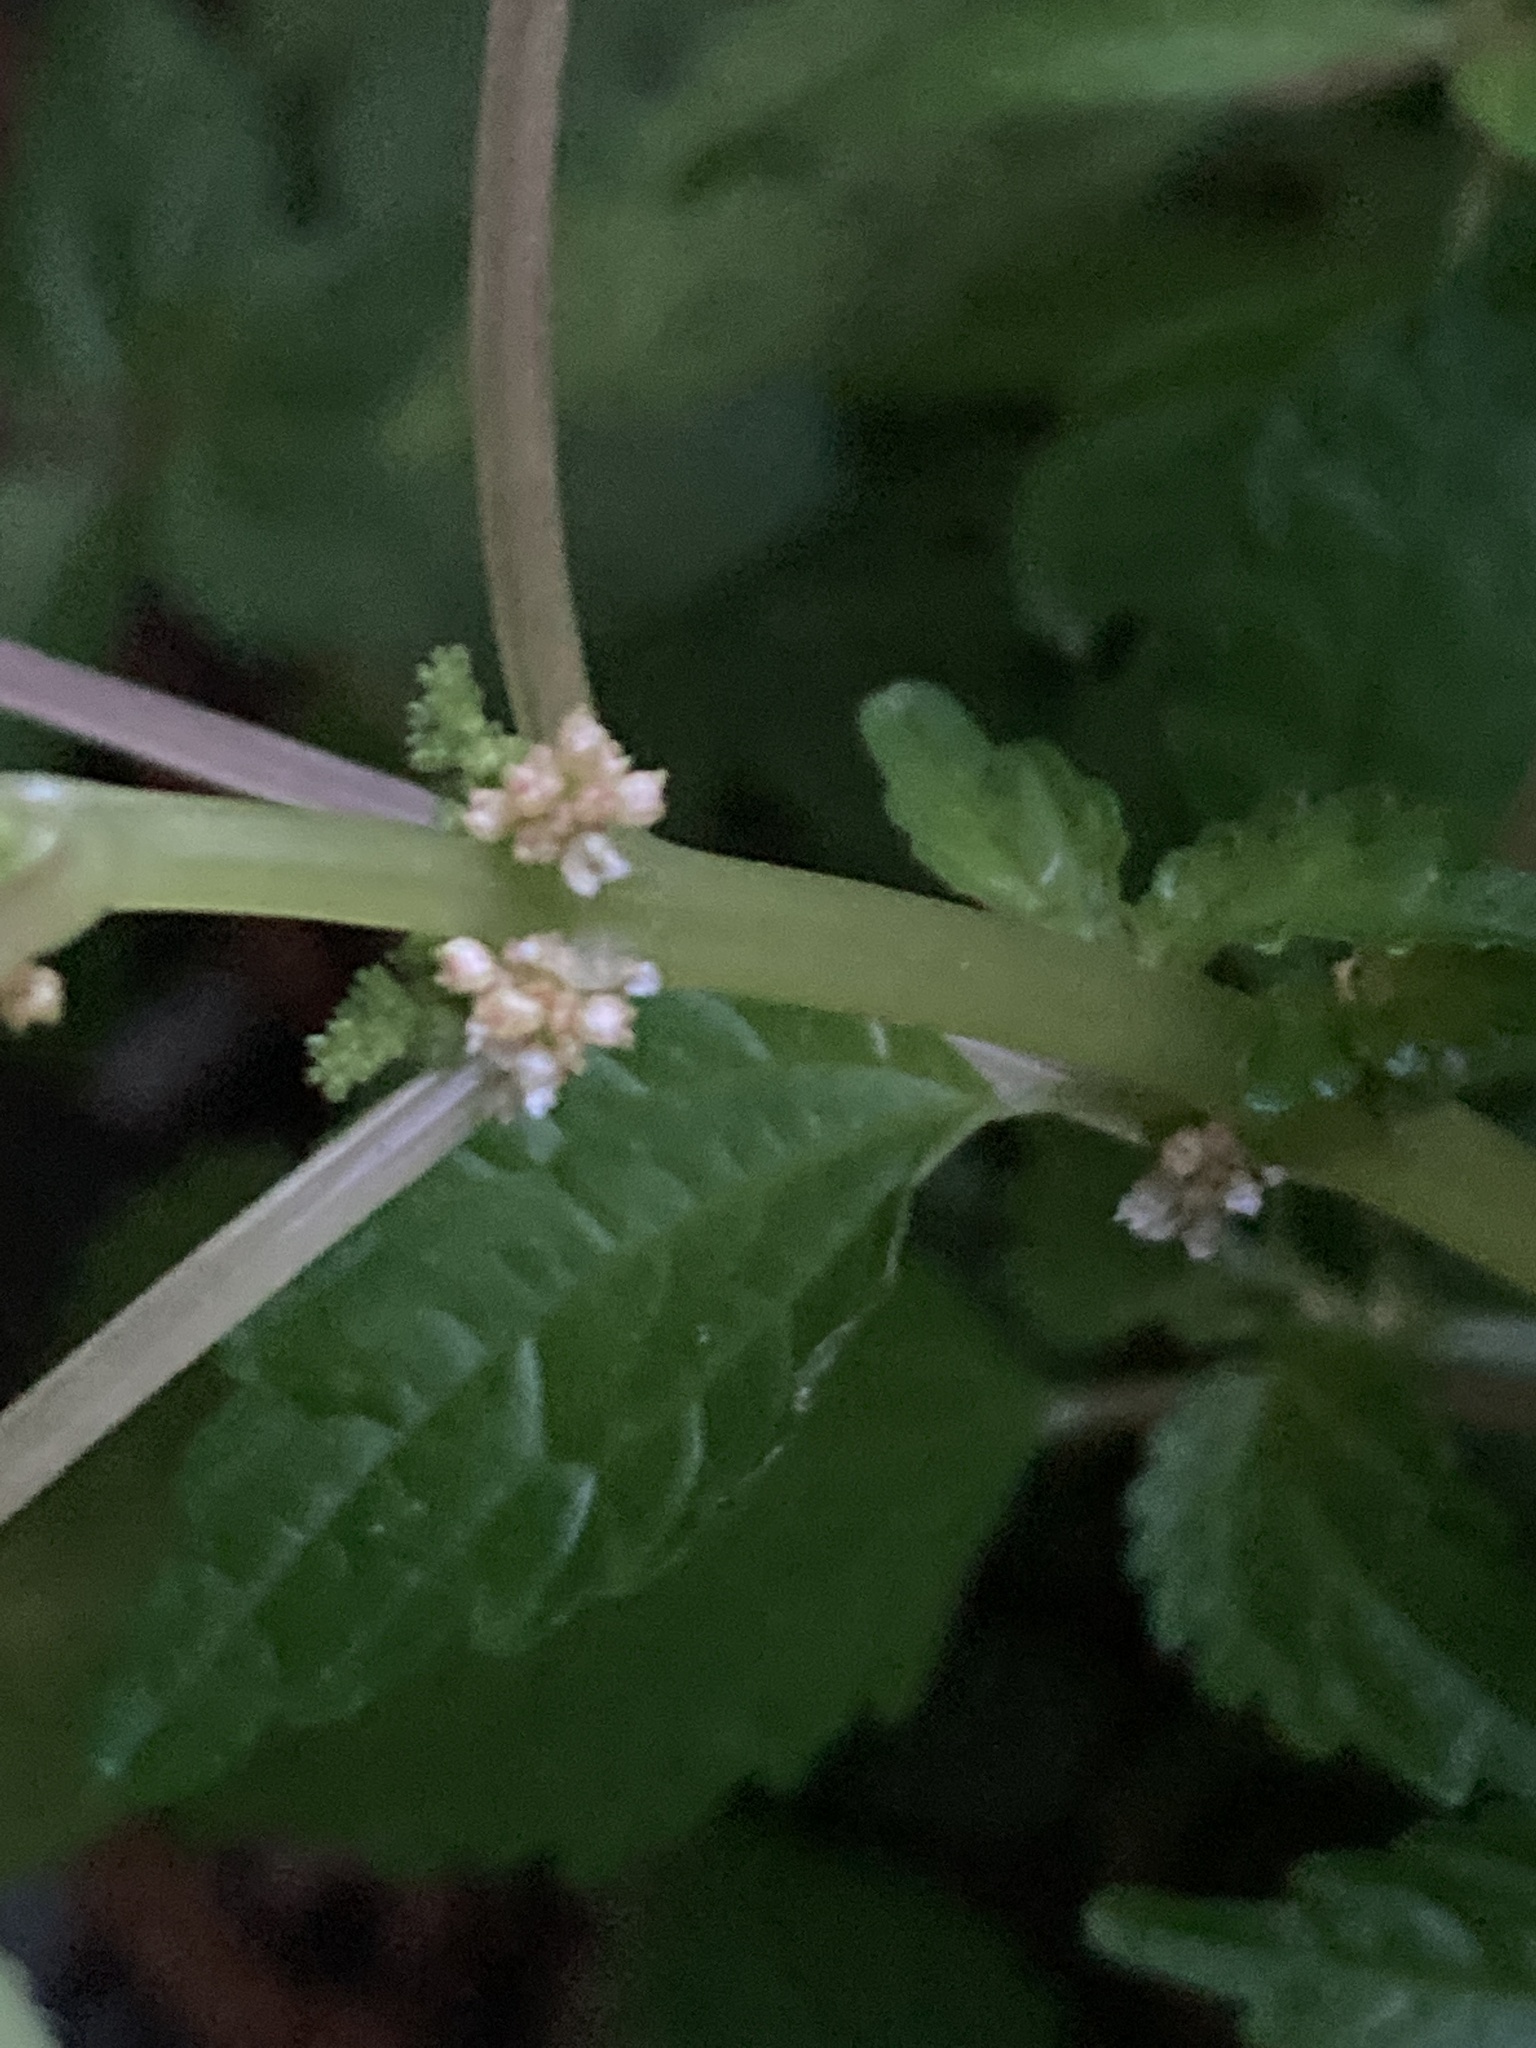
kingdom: Plantae
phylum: Tracheophyta
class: Magnoliopsida
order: Rosales
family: Urticaceae
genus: Pilea
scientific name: Pilea pumila
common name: Clearweed
